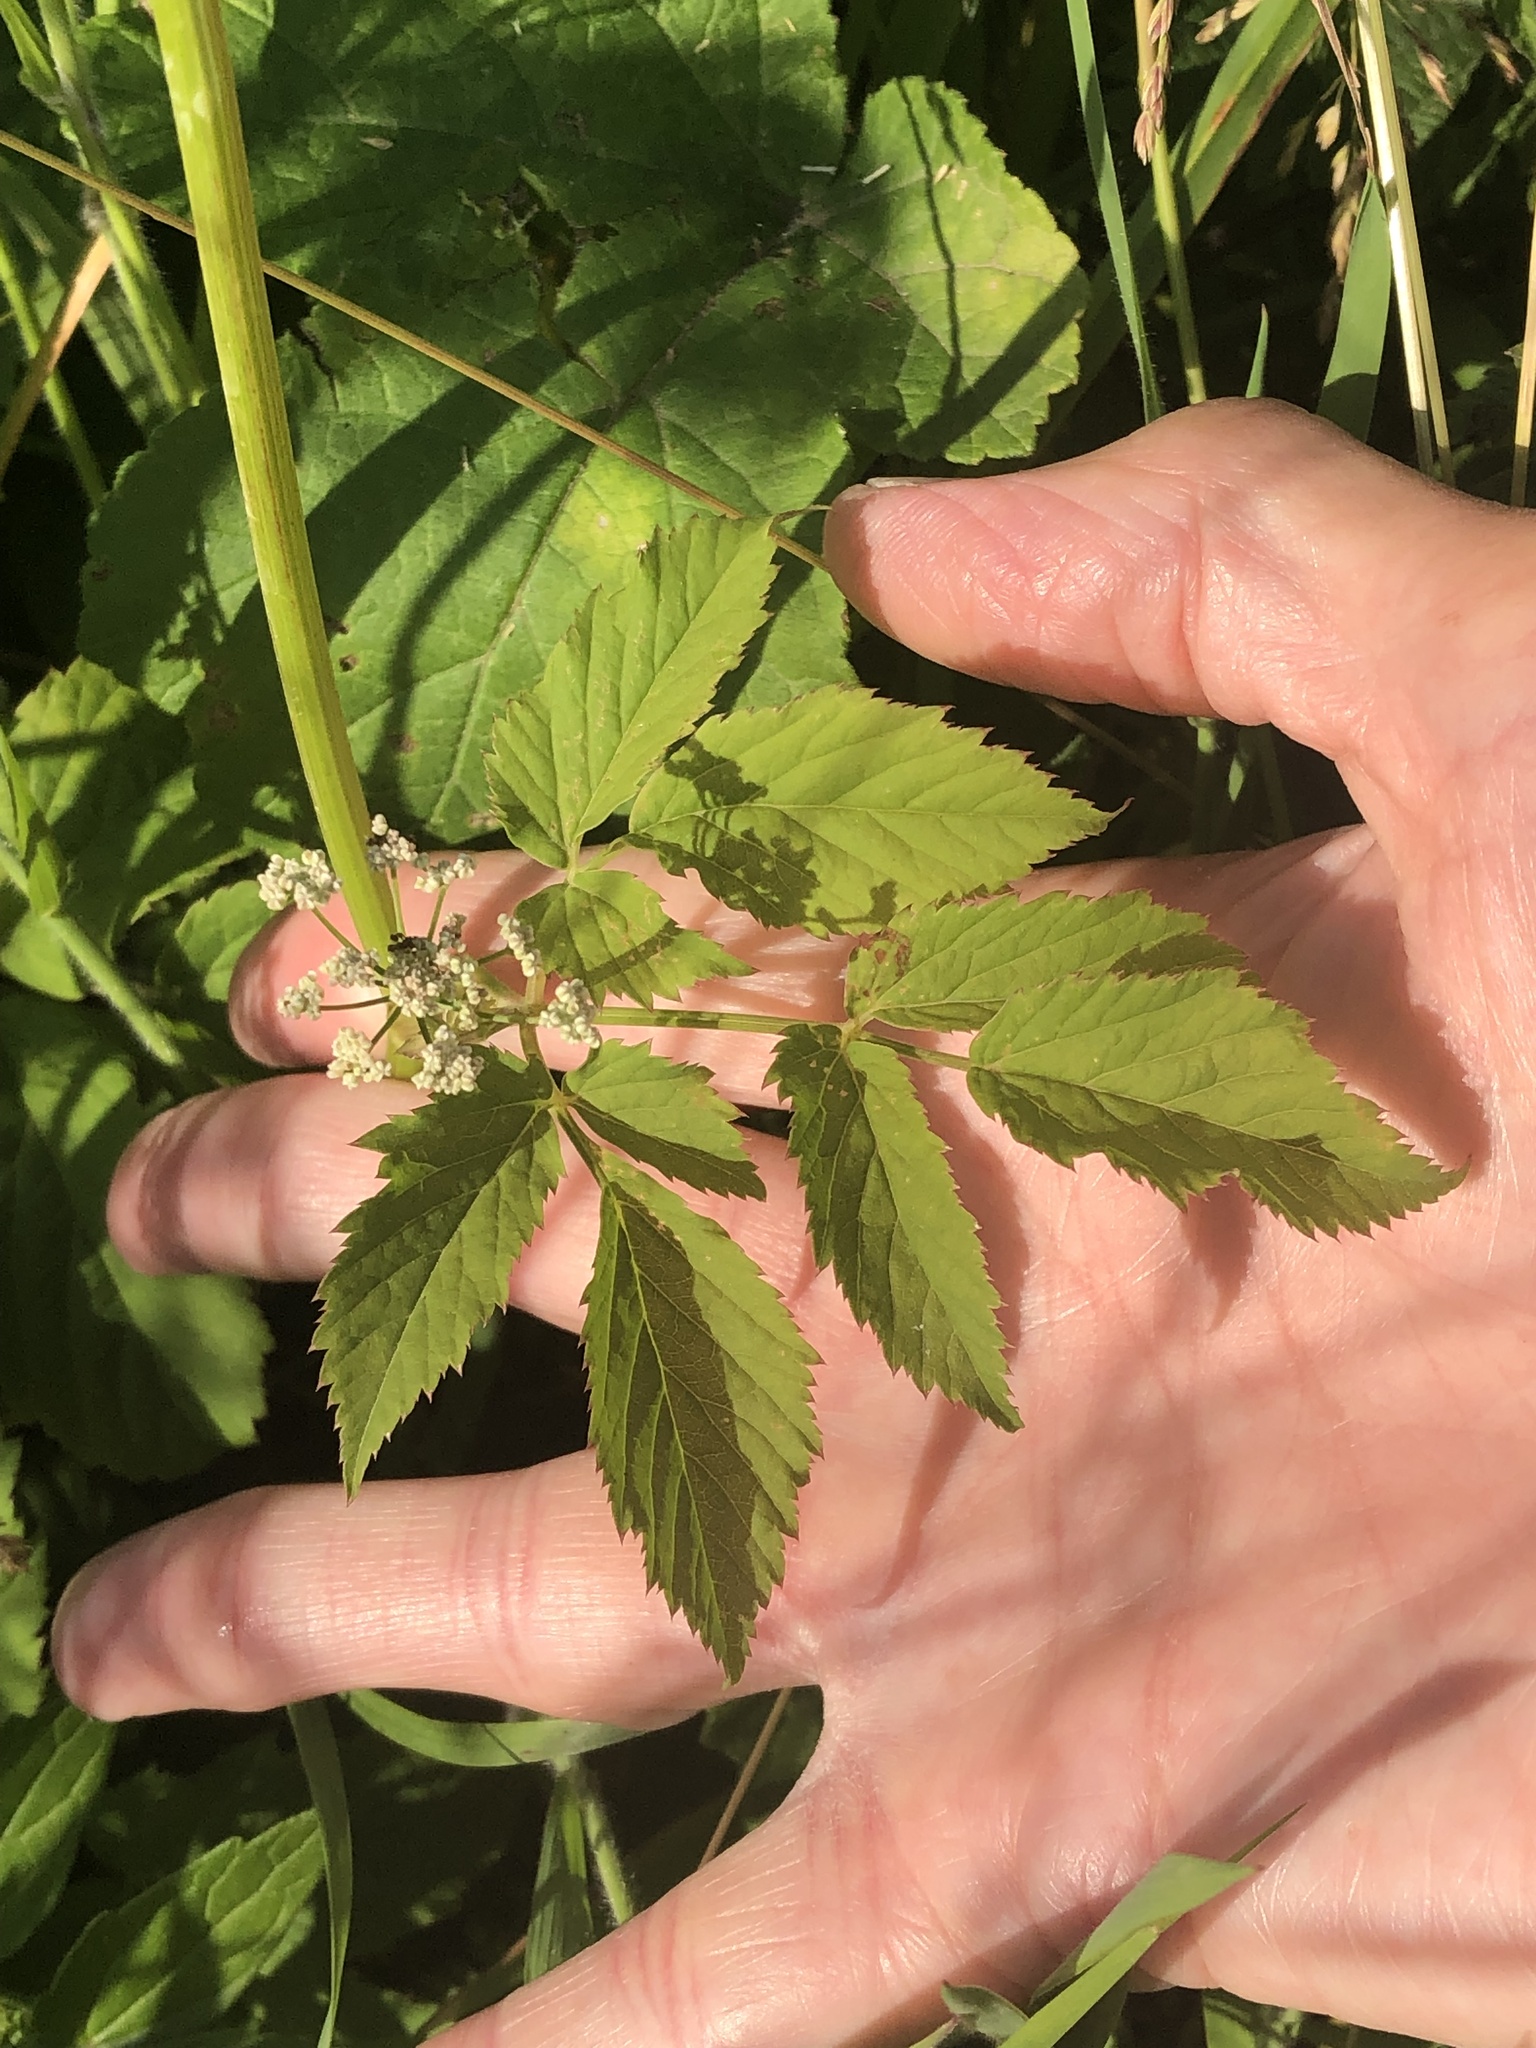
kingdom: Plantae
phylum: Tracheophyta
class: Magnoliopsida
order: Apiales
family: Apiaceae
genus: Aegopodium
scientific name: Aegopodium podagraria
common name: Ground-elder
